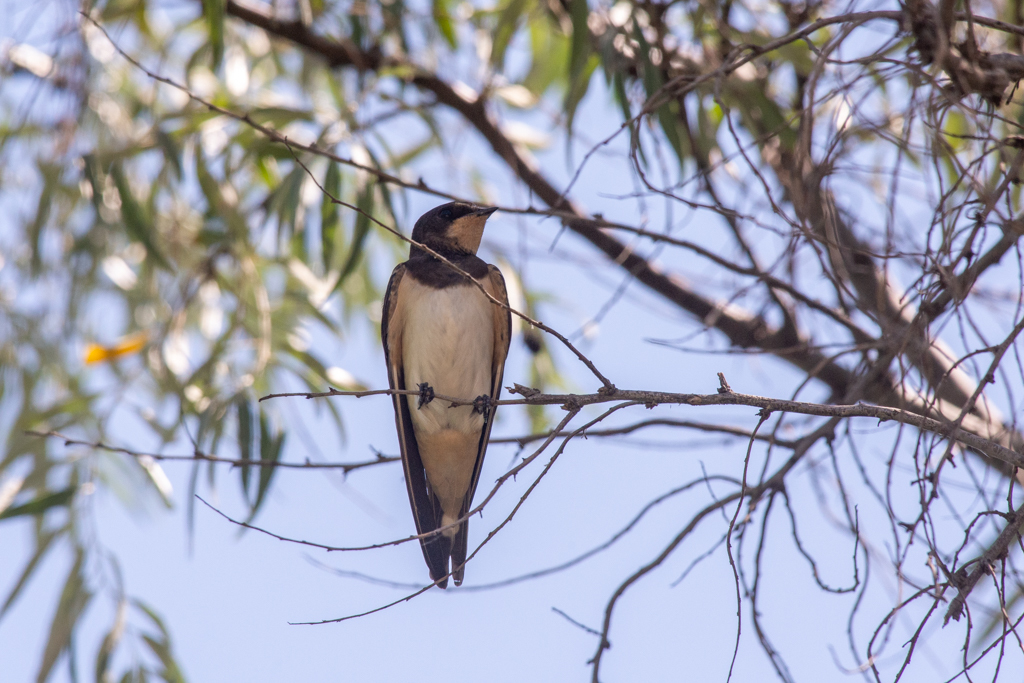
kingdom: Animalia
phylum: Chordata
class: Aves
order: Passeriformes
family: Hirundinidae
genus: Hirundo
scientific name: Hirundo rustica
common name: Barn swallow
